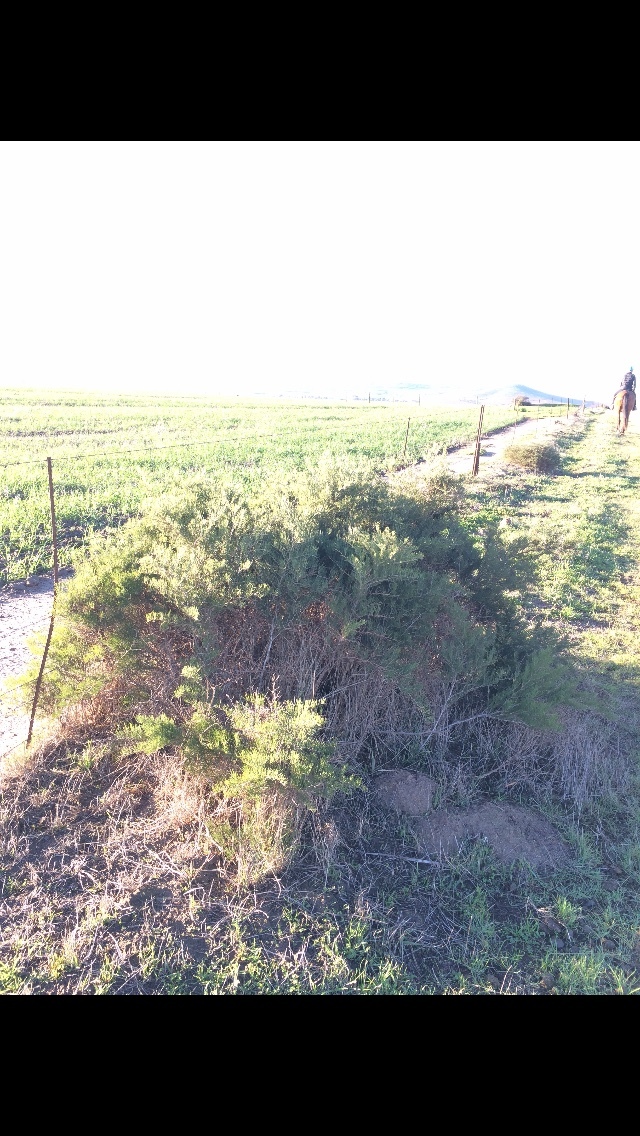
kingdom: Plantae
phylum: Tracheophyta
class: Liliopsida
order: Asparagales
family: Asparagaceae
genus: Asparagus
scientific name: Asparagus lignosus
